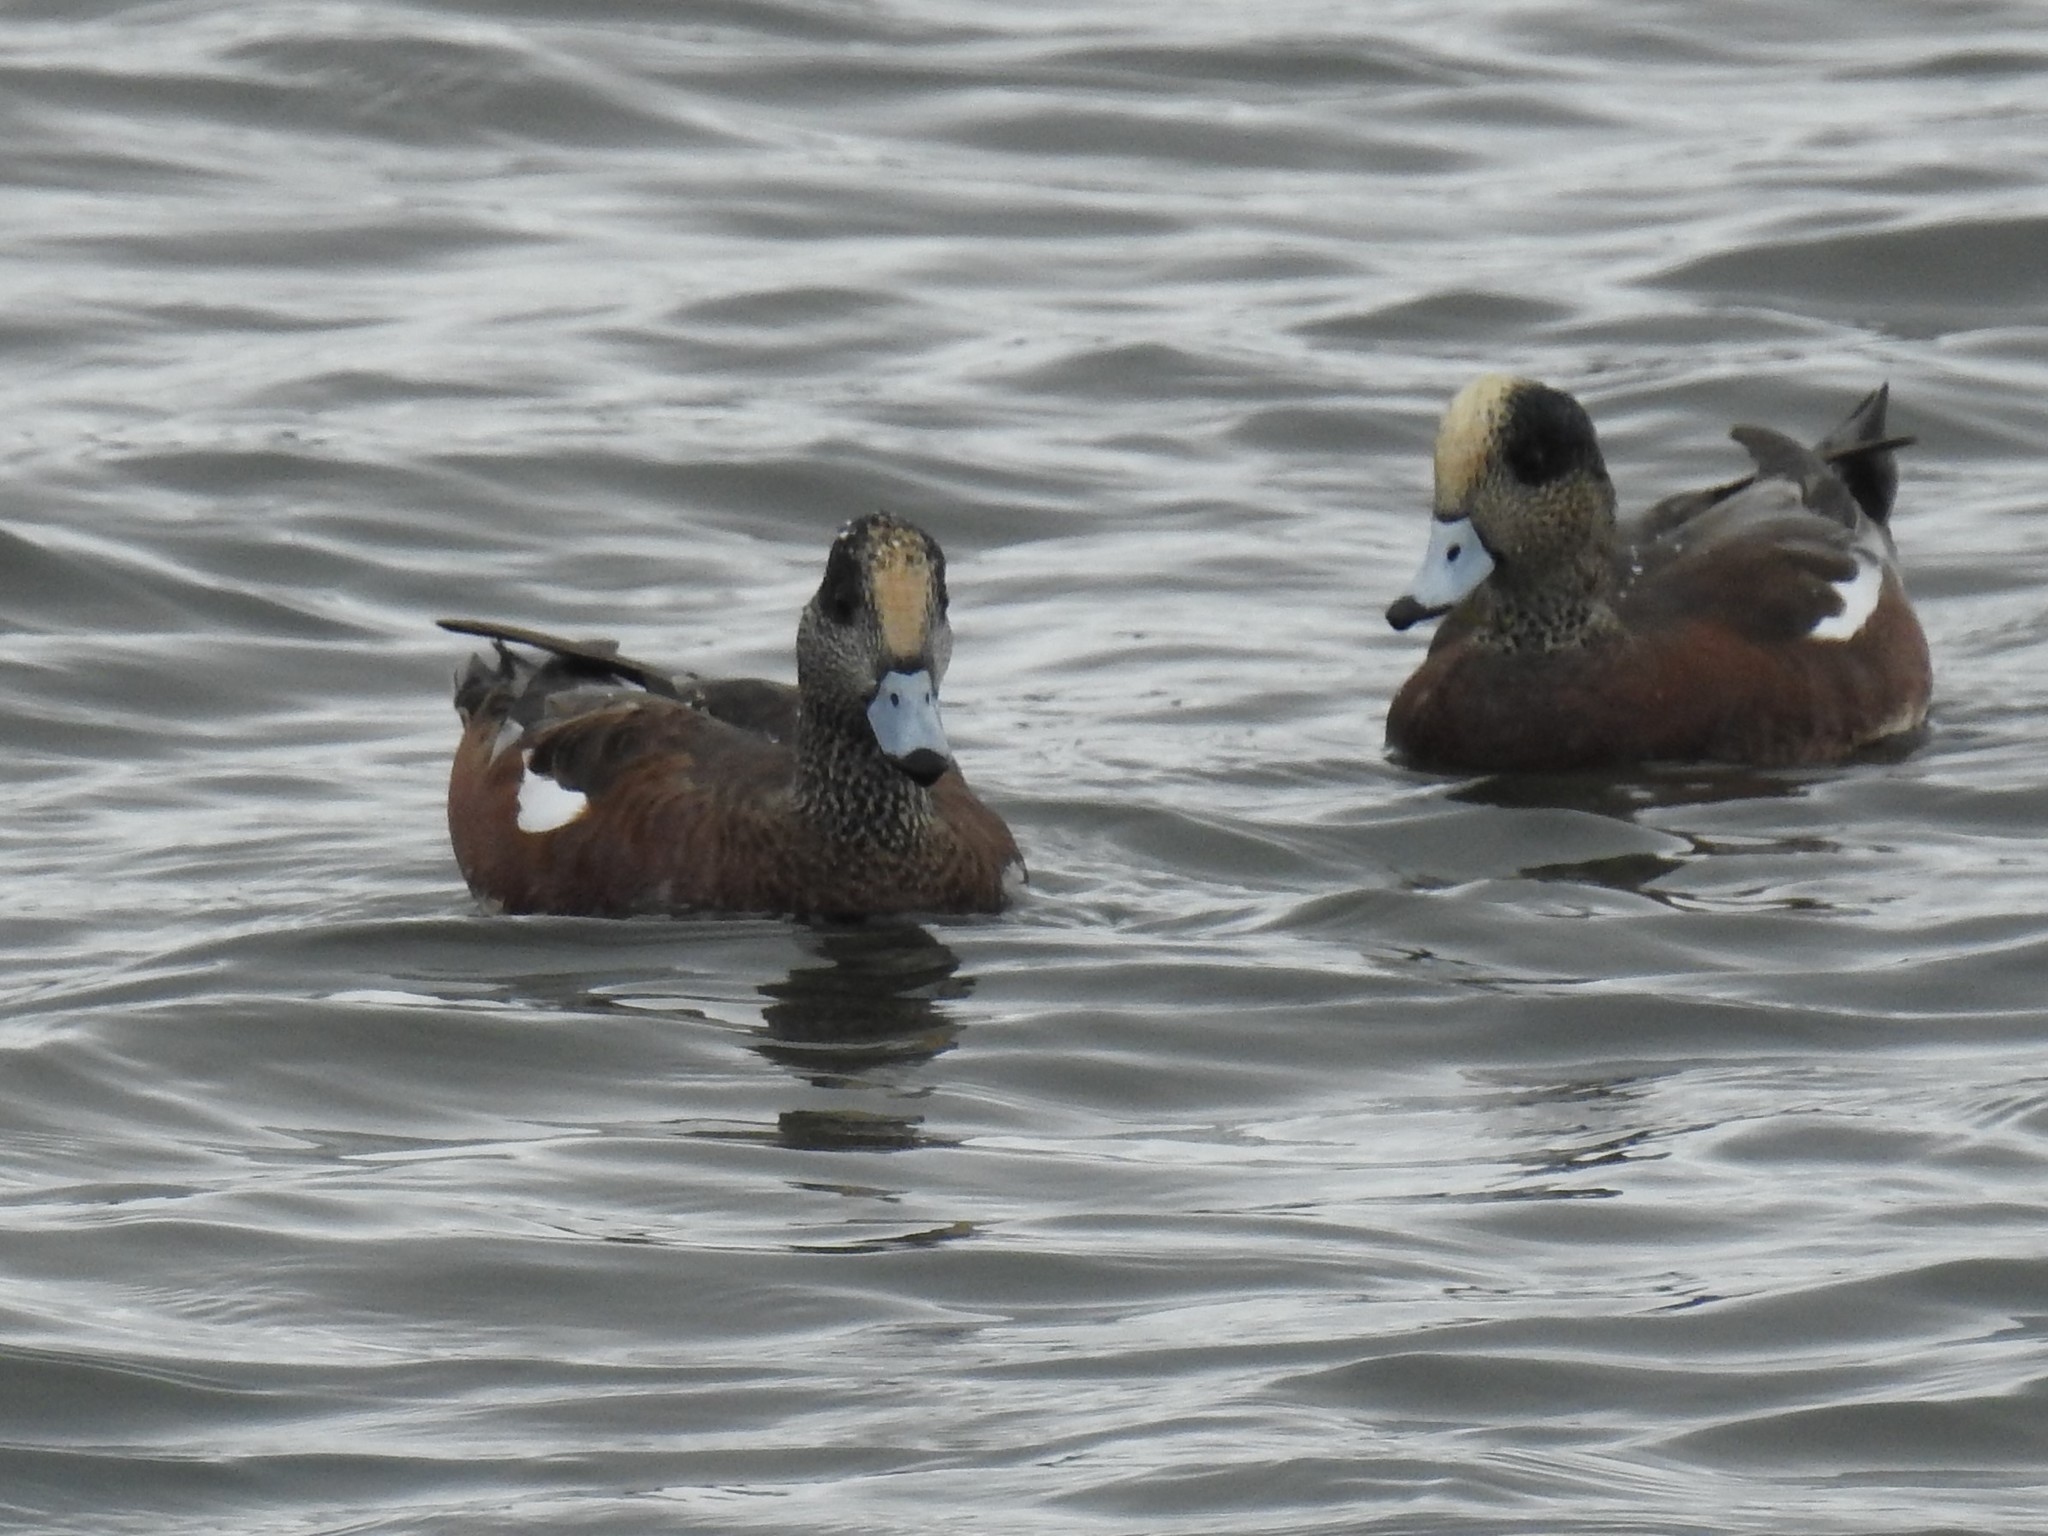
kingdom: Animalia
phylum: Chordata
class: Aves
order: Anseriformes
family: Anatidae
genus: Mareca
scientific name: Mareca americana
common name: American wigeon
